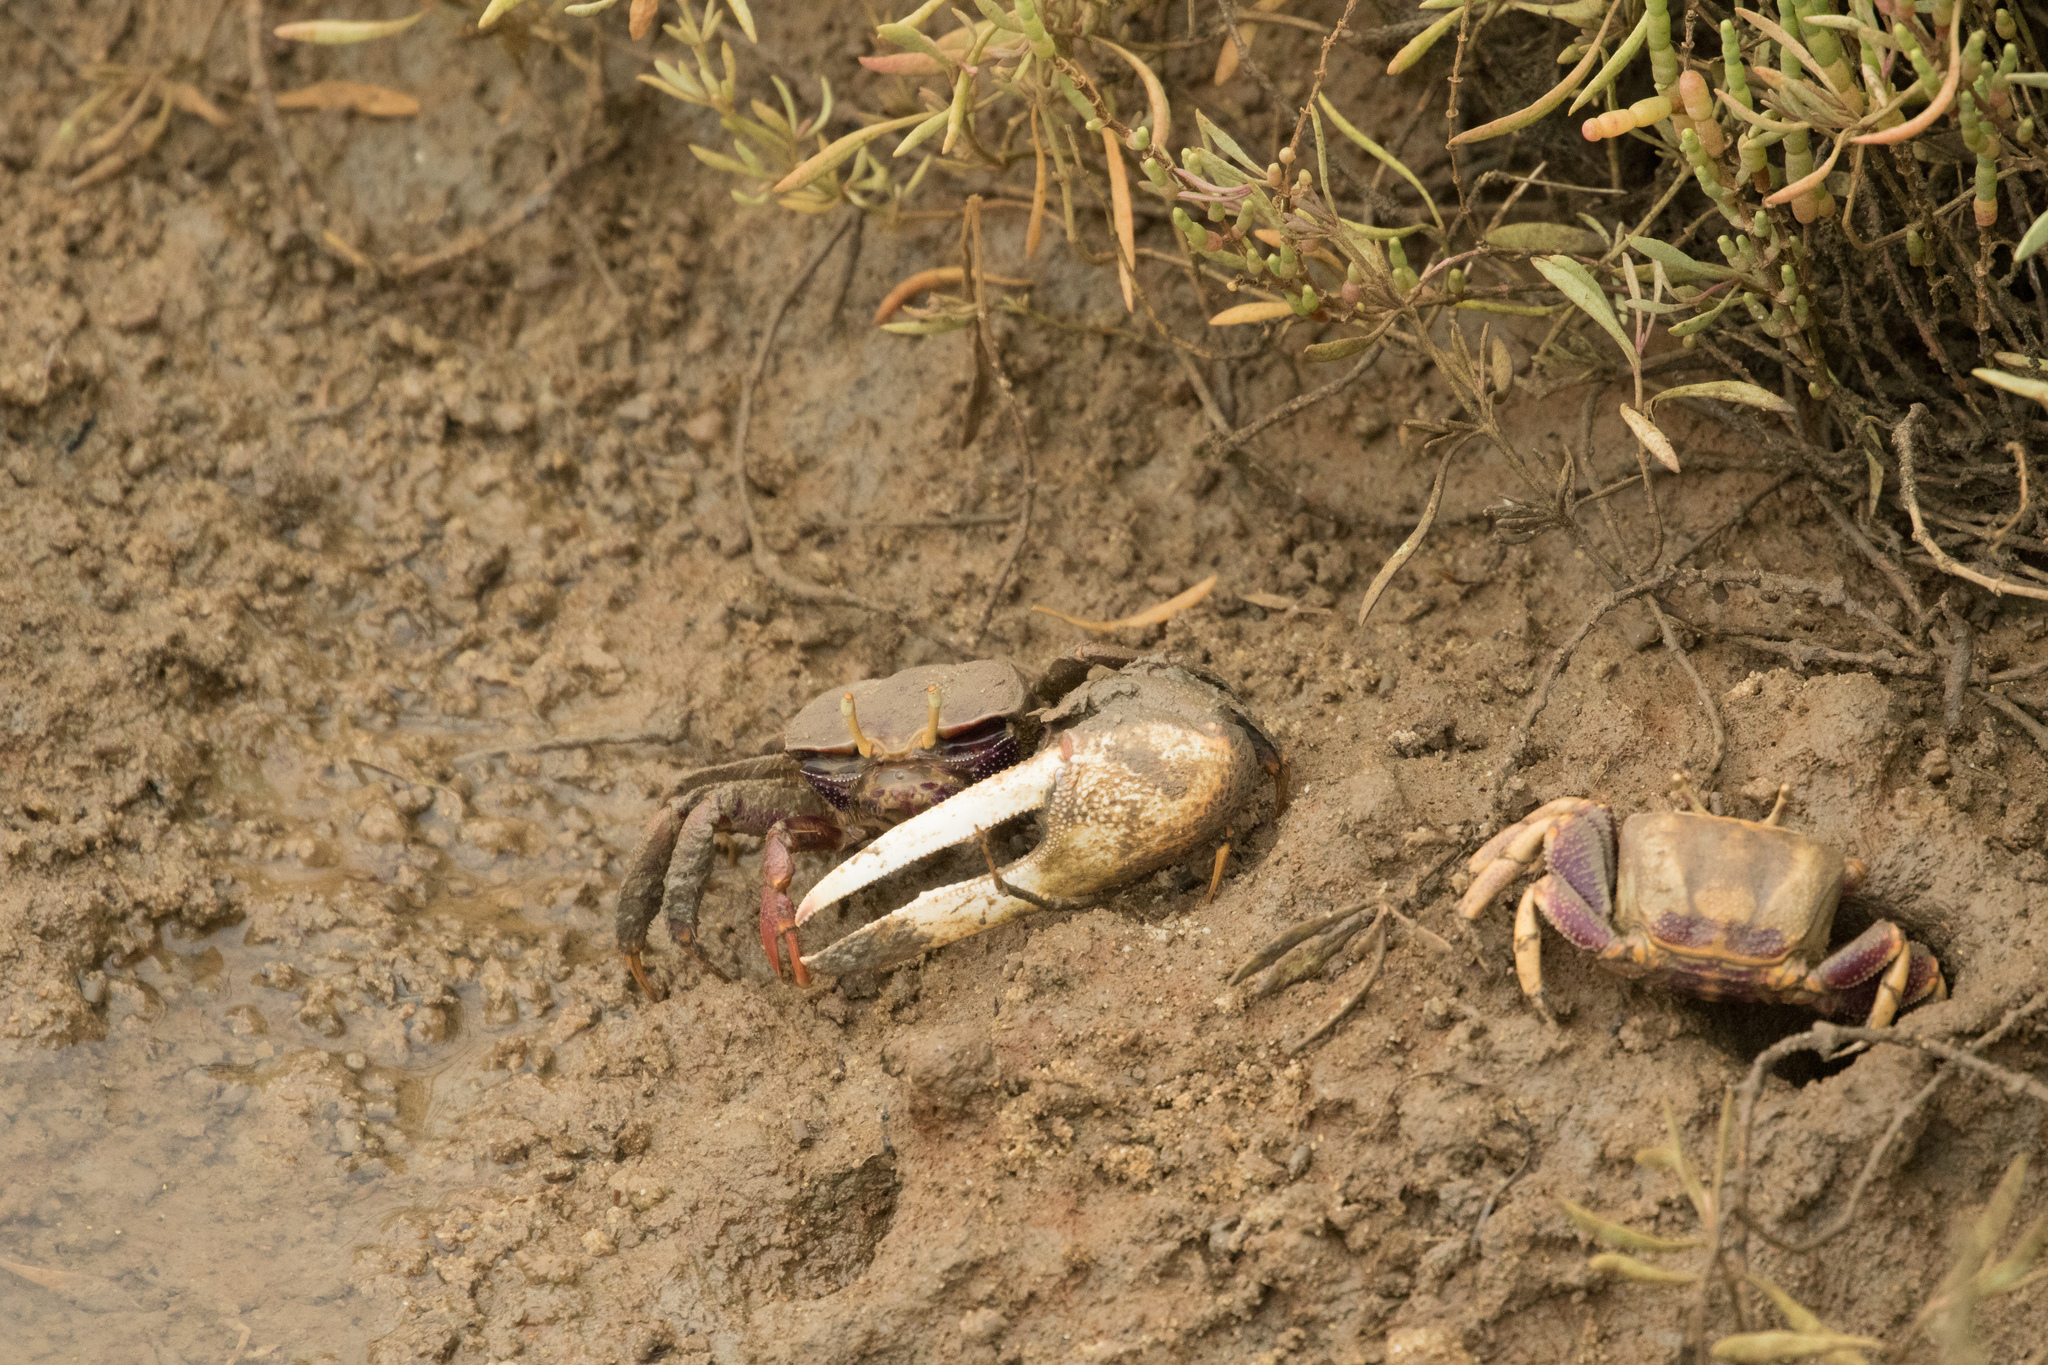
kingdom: Animalia
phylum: Arthropoda
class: Malacostraca
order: Decapoda
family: Ocypodidae
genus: Afruca
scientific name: Afruca tangeri
